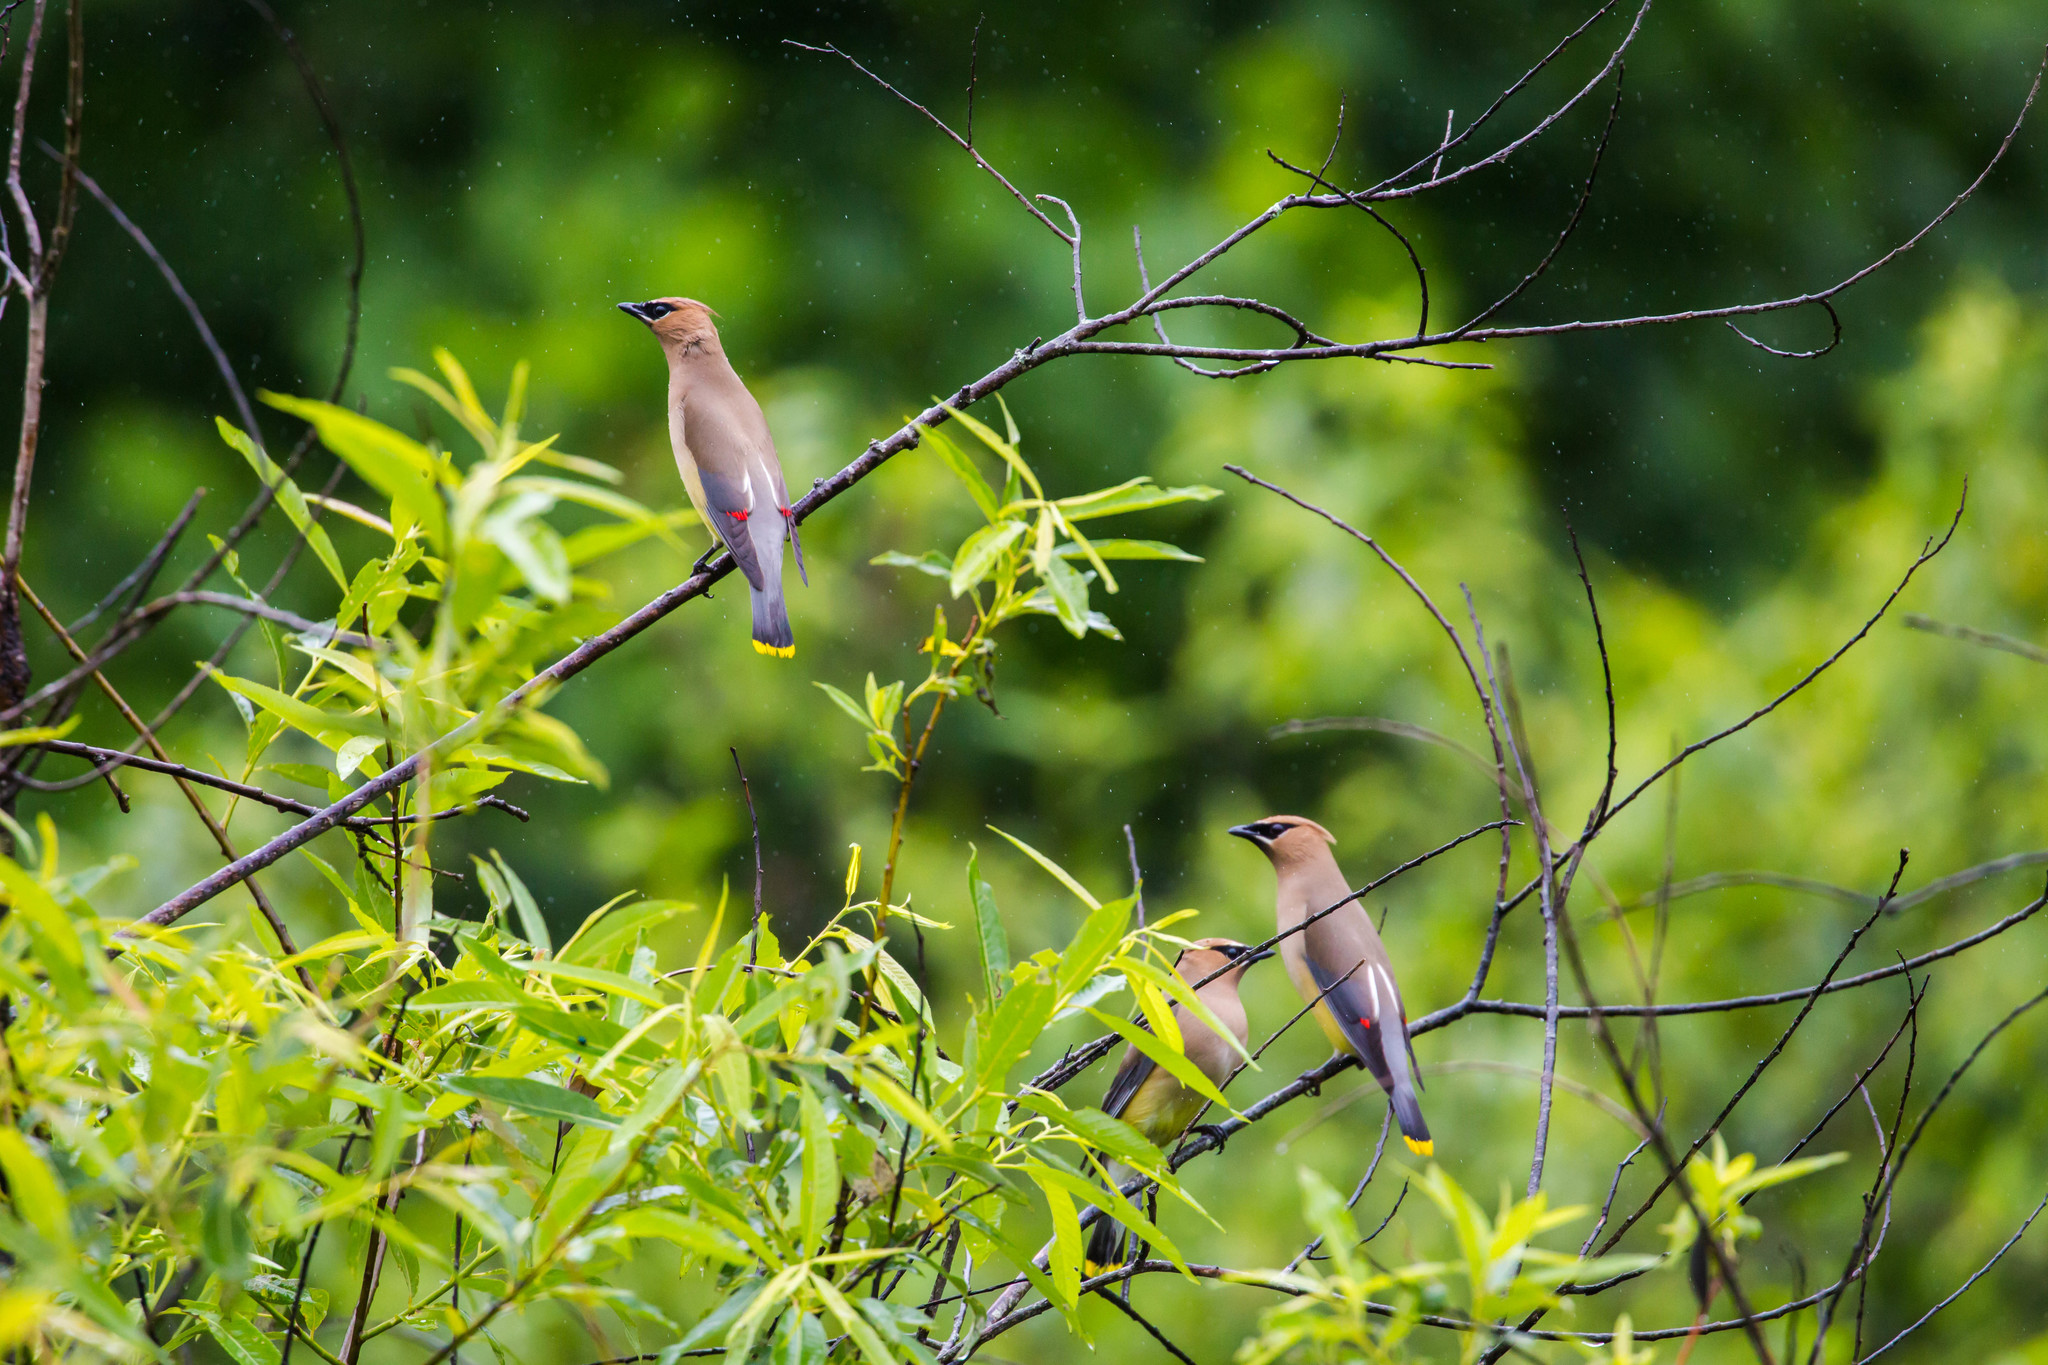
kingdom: Animalia
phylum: Chordata
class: Aves
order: Passeriformes
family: Bombycillidae
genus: Bombycilla
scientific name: Bombycilla cedrorum
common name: Cedar waxwing
